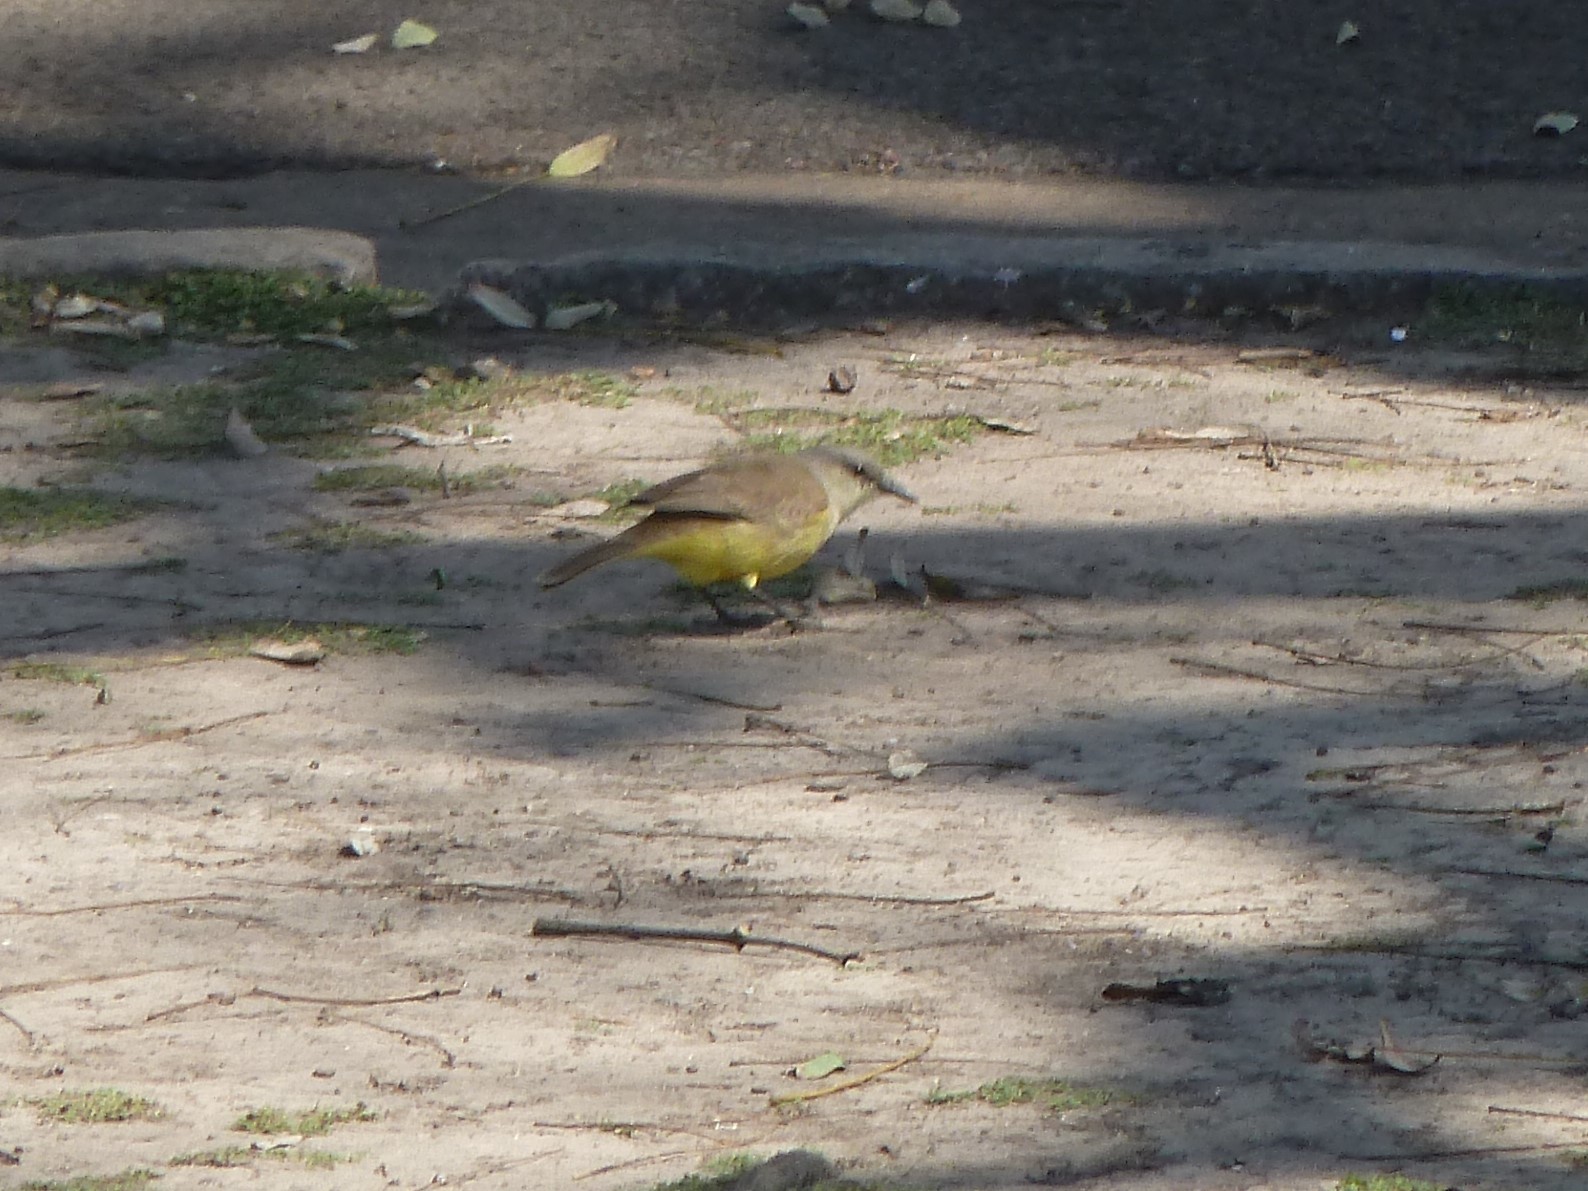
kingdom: Animalia
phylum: Chordata
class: Aves
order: Passeriformes
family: Tyrannidae
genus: Machetornis
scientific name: Machetornis rixosa
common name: Cattle tyrant
